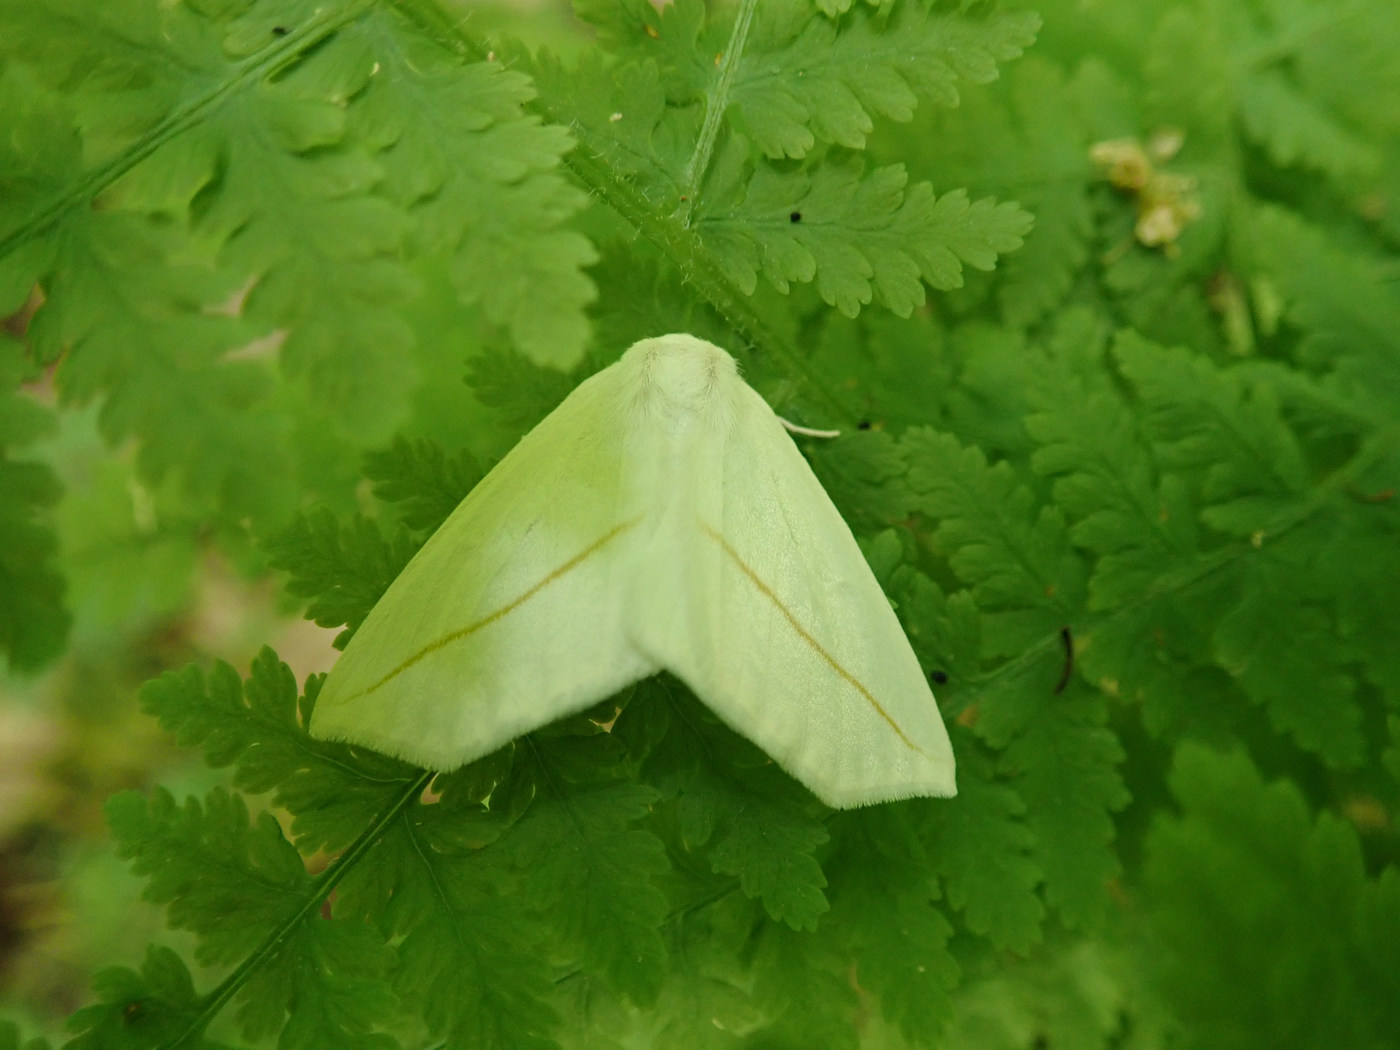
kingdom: Animalia
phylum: Arthropoda
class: Insecta
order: Lepidoptera
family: Geometridae
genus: Tetracis
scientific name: Tetracis cachexiata
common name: White slant-line
